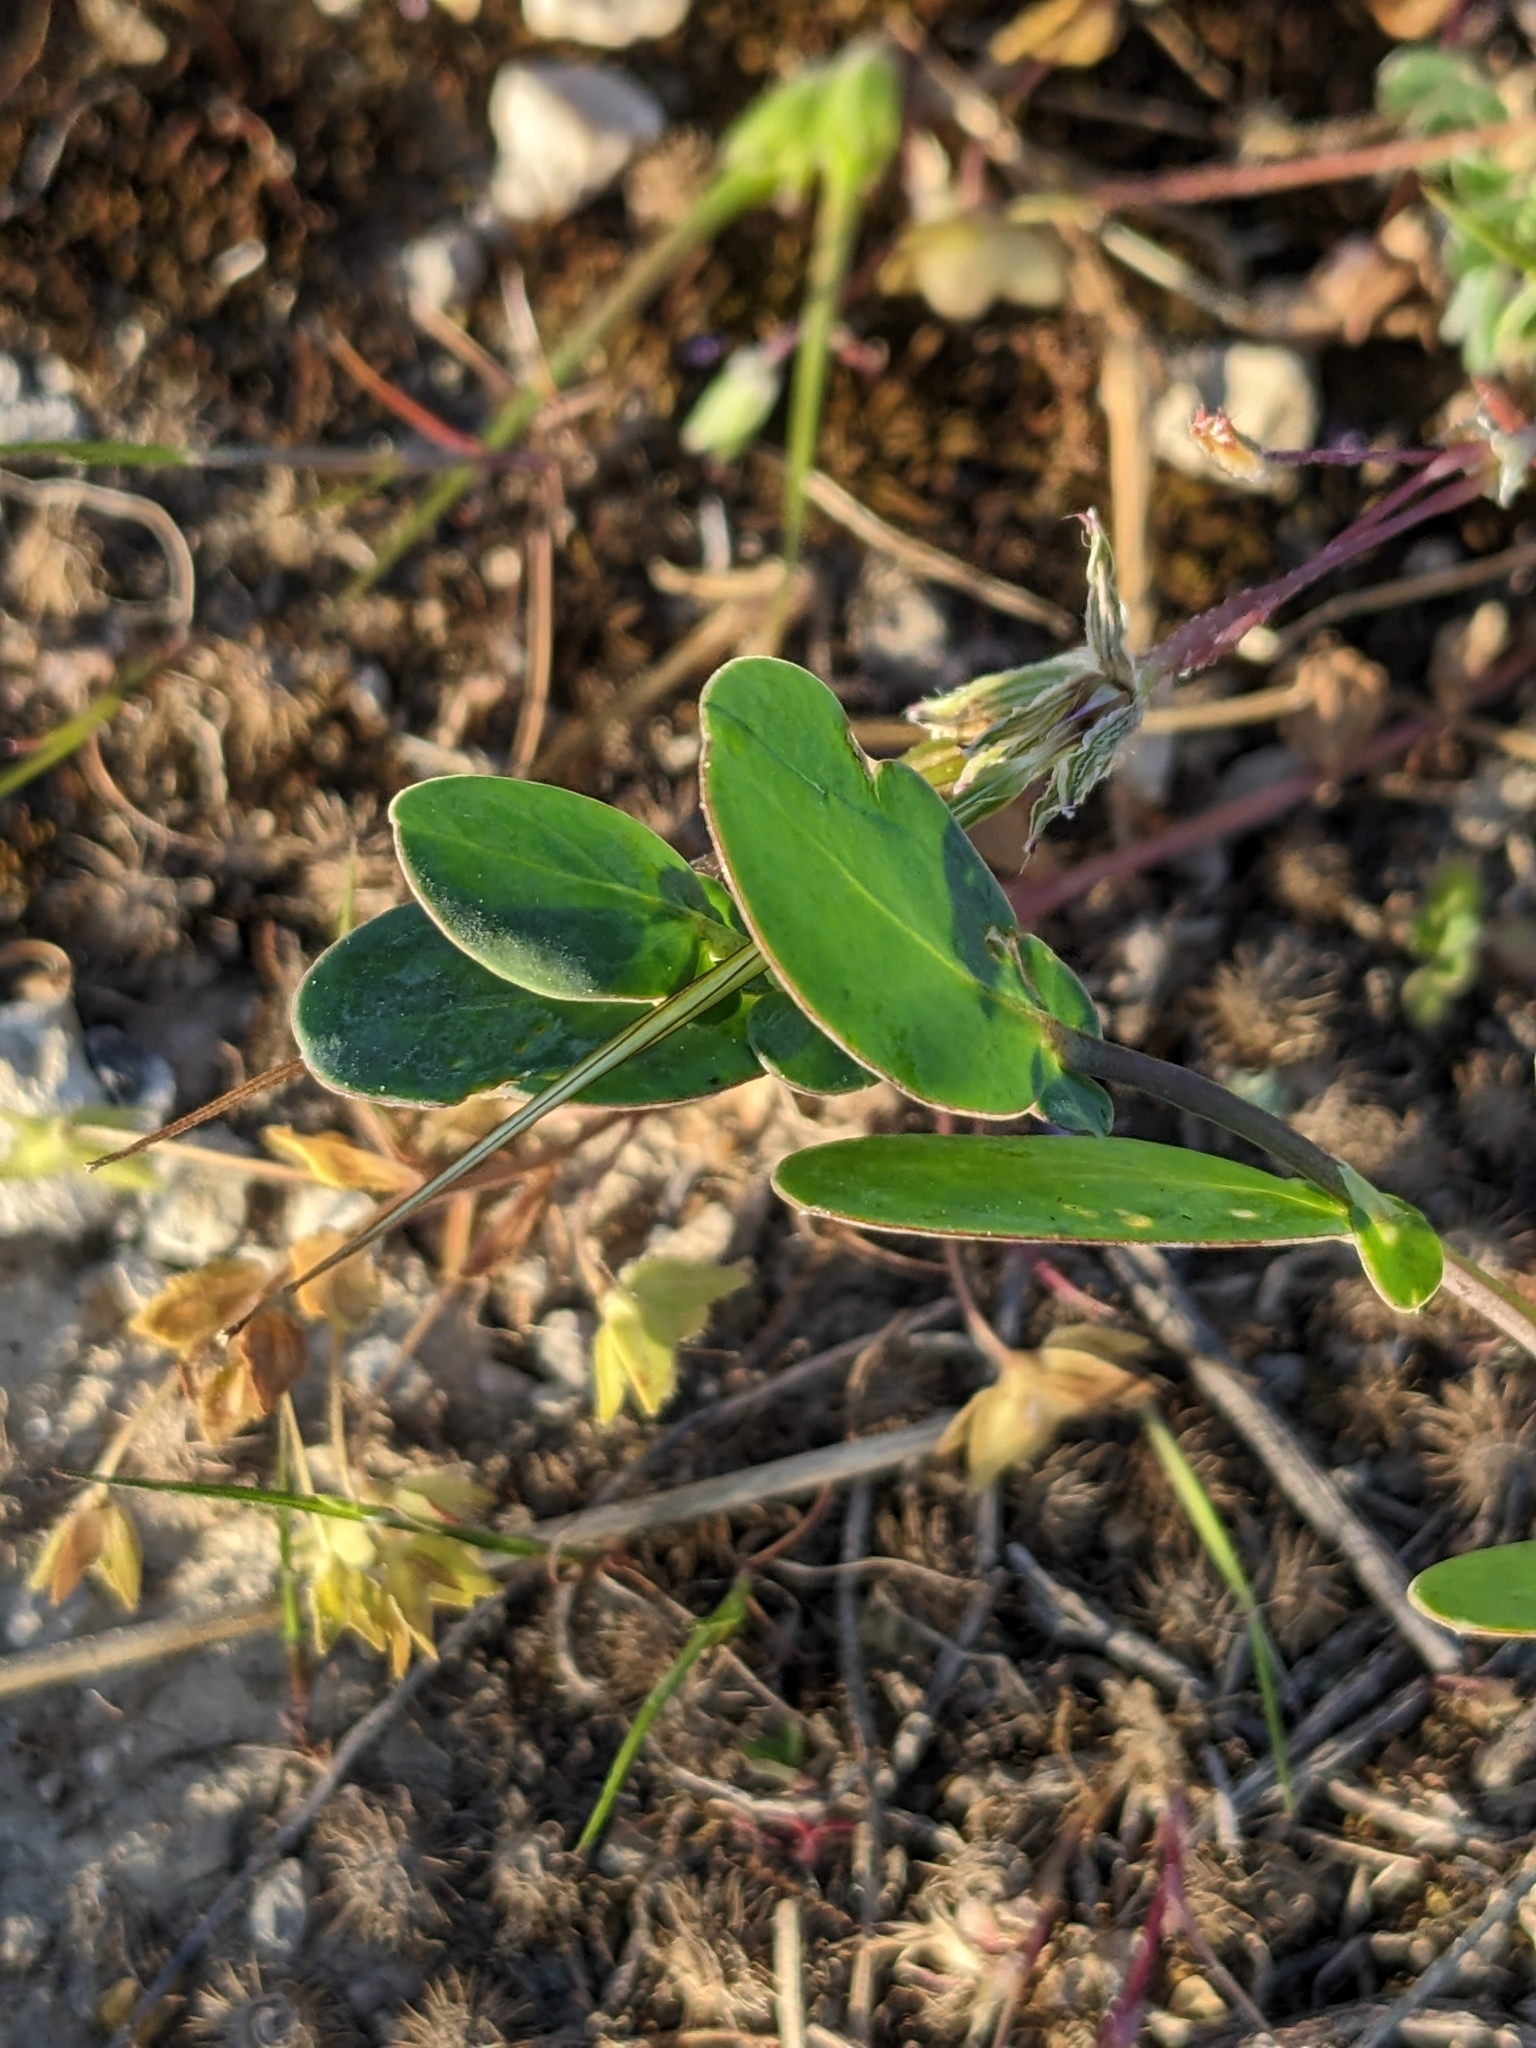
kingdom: Plantae
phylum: Tracheophyta
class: Magnoliopsida
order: Fabales
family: Fabaceae
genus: Coronilla
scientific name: Coronilla scorpioides
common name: Annual scorpion-vetch
